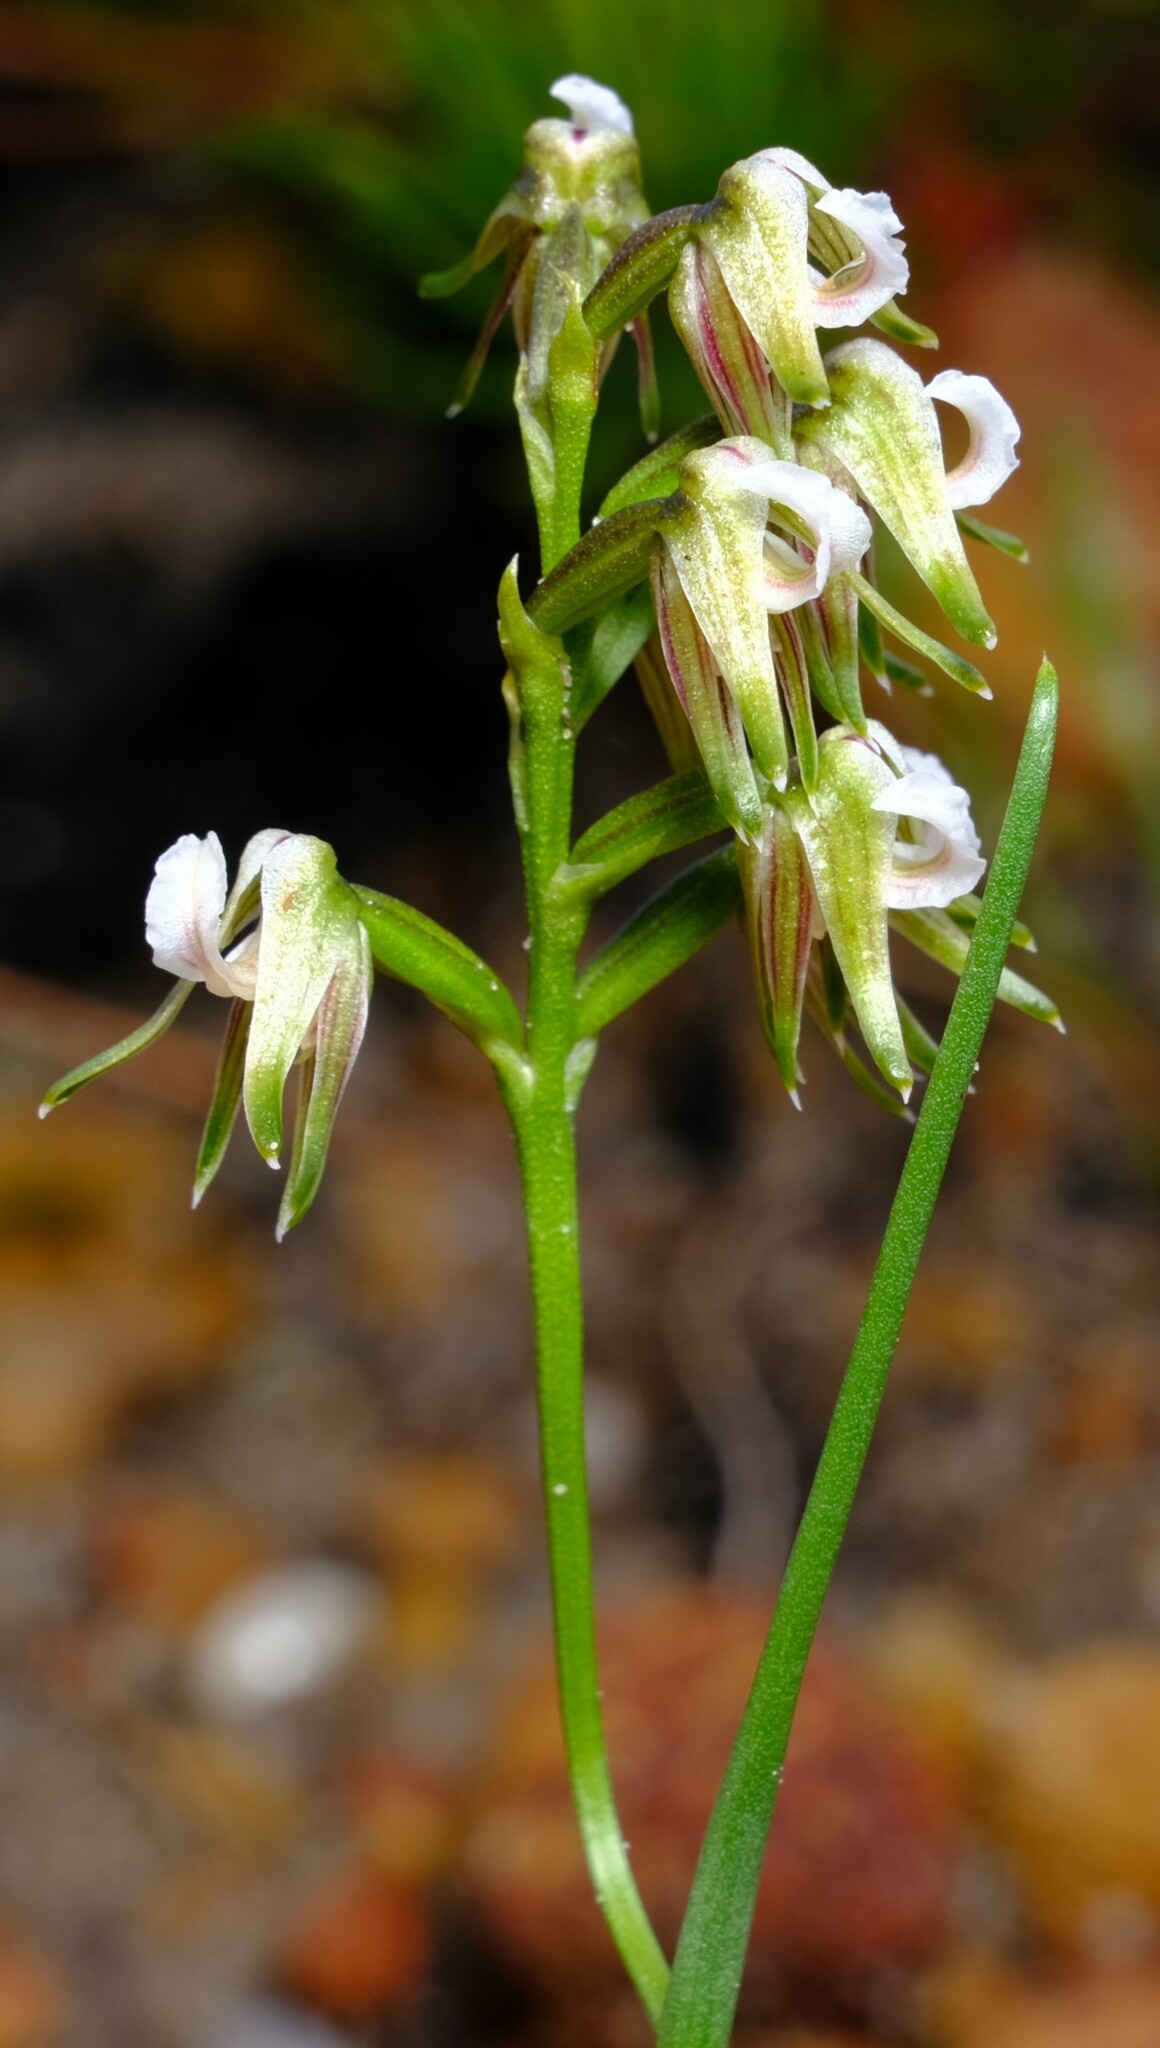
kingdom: Plantae
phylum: Tracheophyta
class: Liliopsida
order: Asparagales
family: Orchidaceae
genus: Prasophyllum
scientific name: Prasophyllum parvifolium
